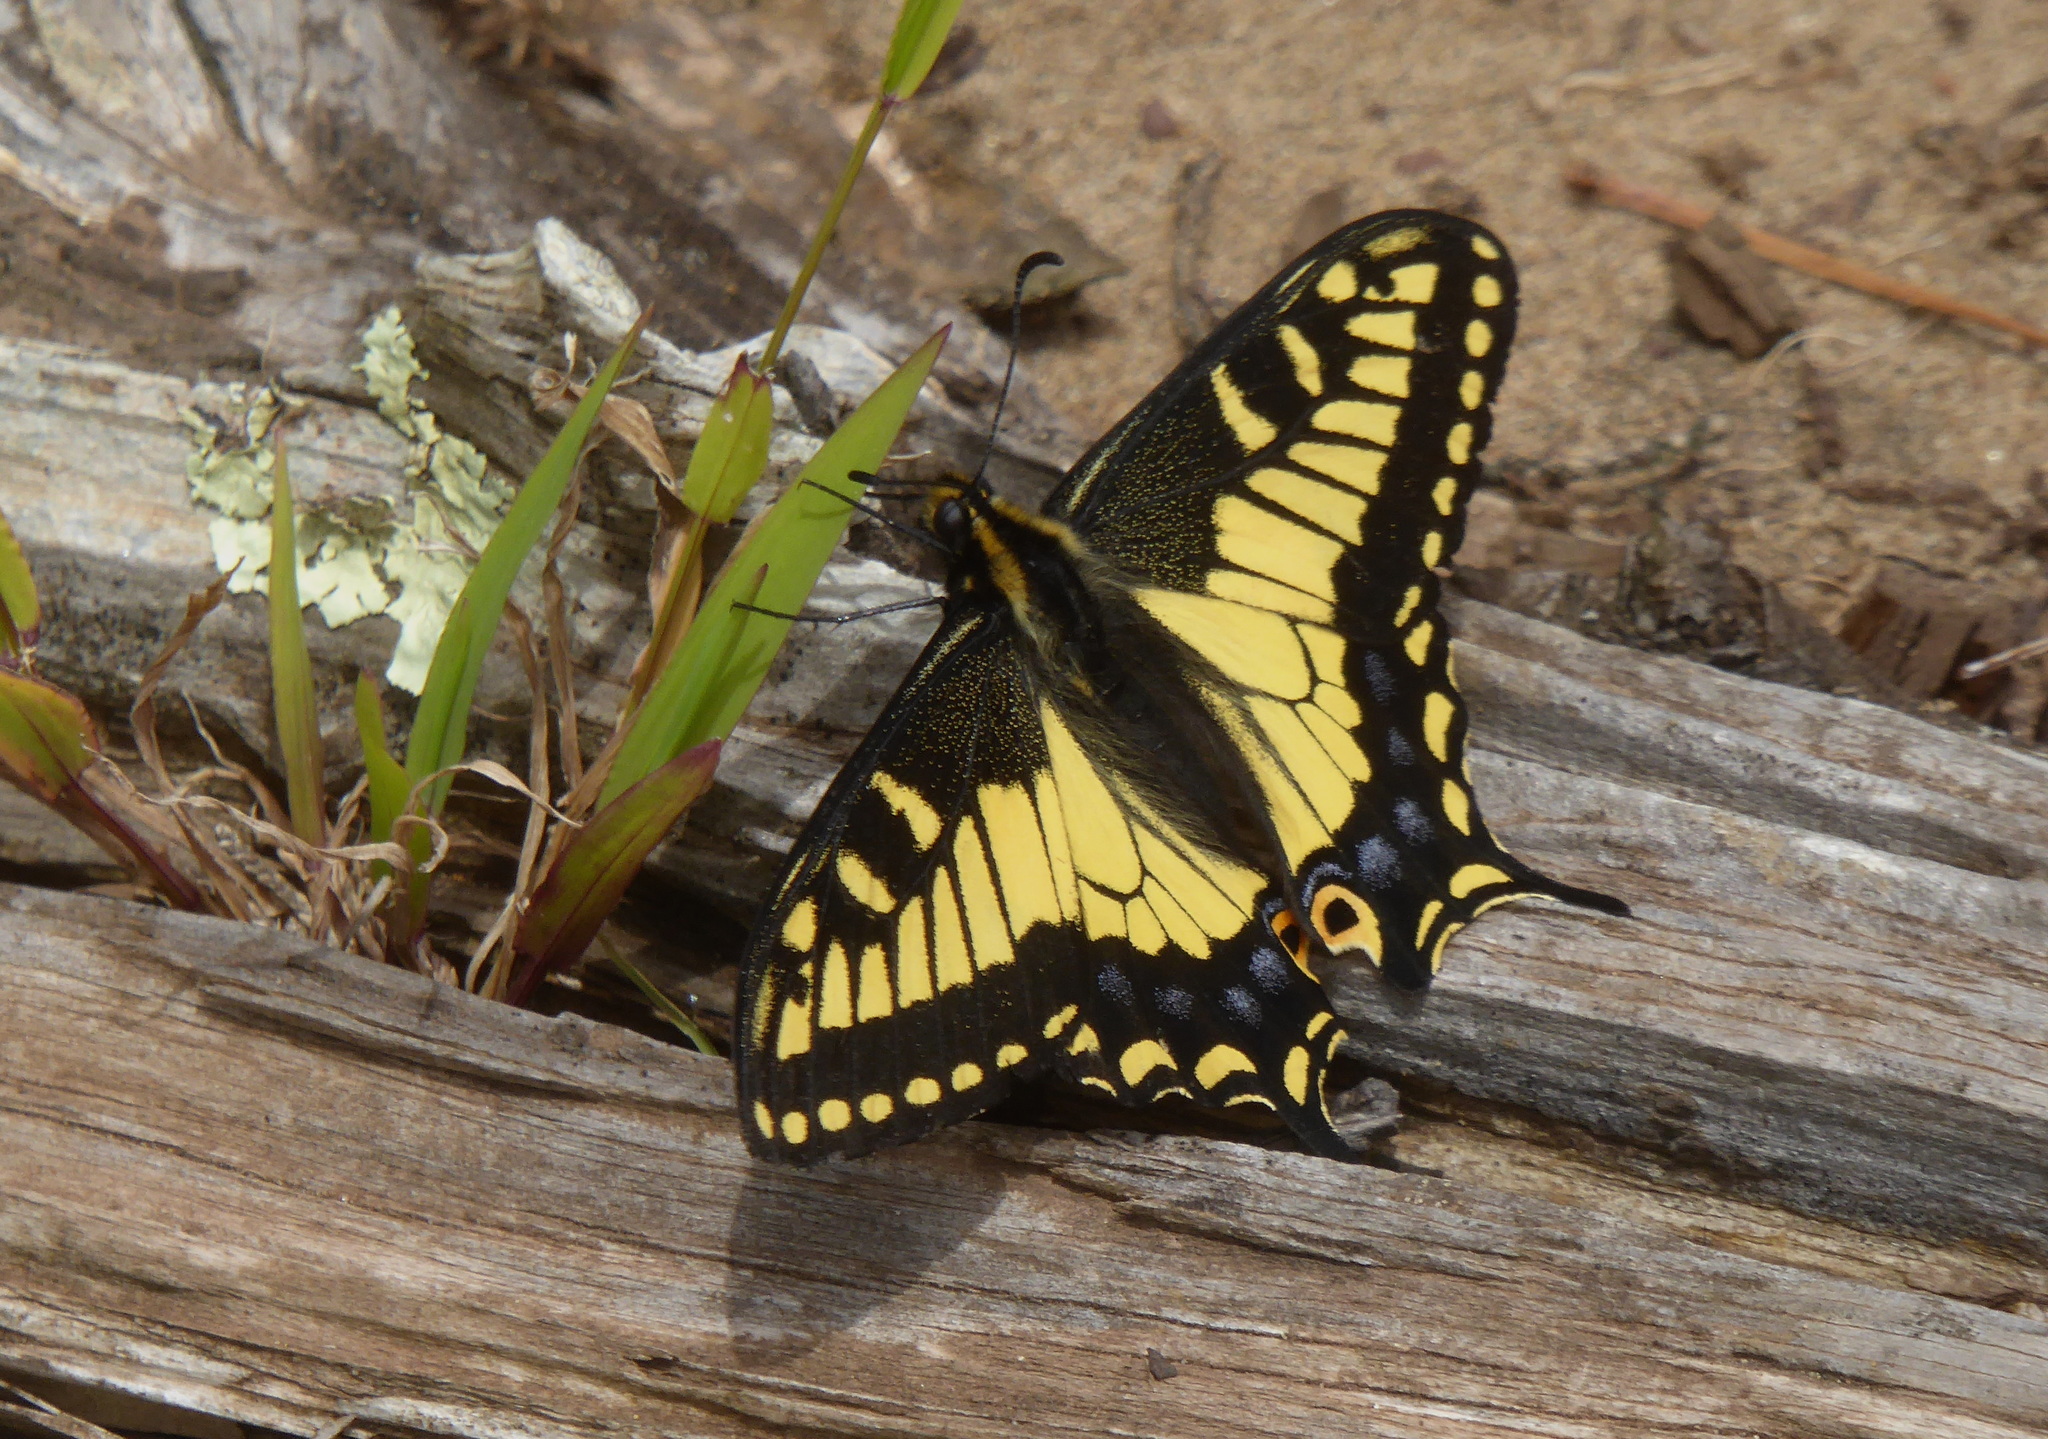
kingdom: Animalia
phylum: Arthropoda
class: Insecta
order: Lepidoptera
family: Papilionidae
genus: Papilio
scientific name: Papilio zelicaon
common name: Anise swallowtail
